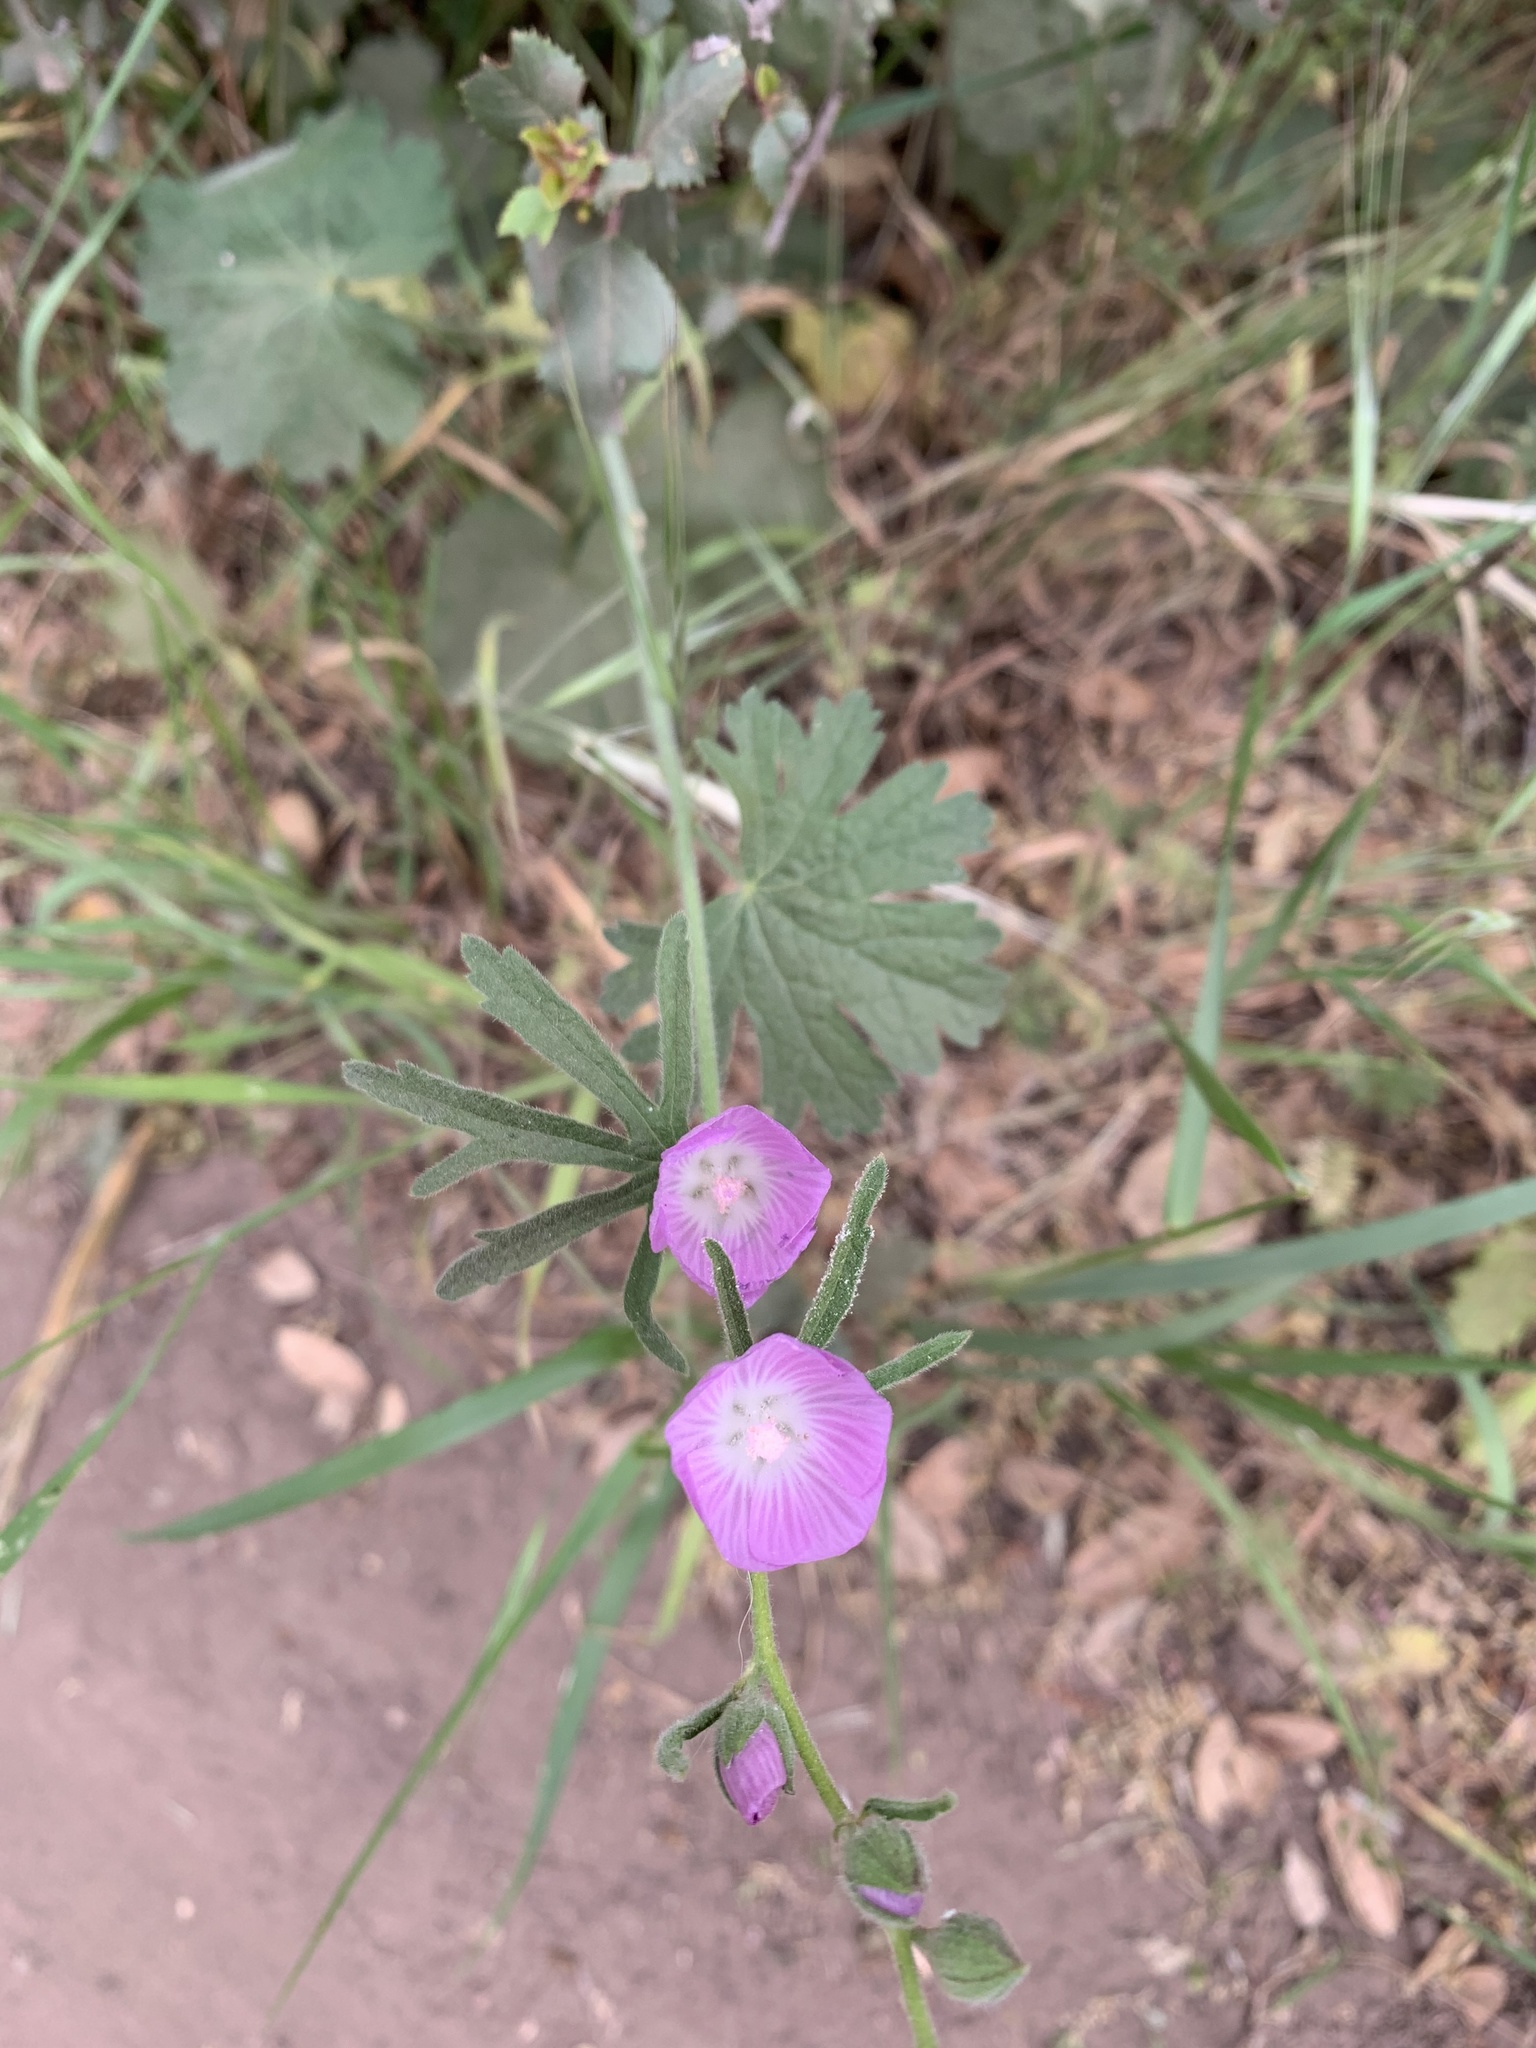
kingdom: Plantae
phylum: Tracheophyta
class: Magnoliopsida
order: Malvales
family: Malvaceae
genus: Sidalcea
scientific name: Sidalcea sparsifolia
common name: Southern checkerbloom
